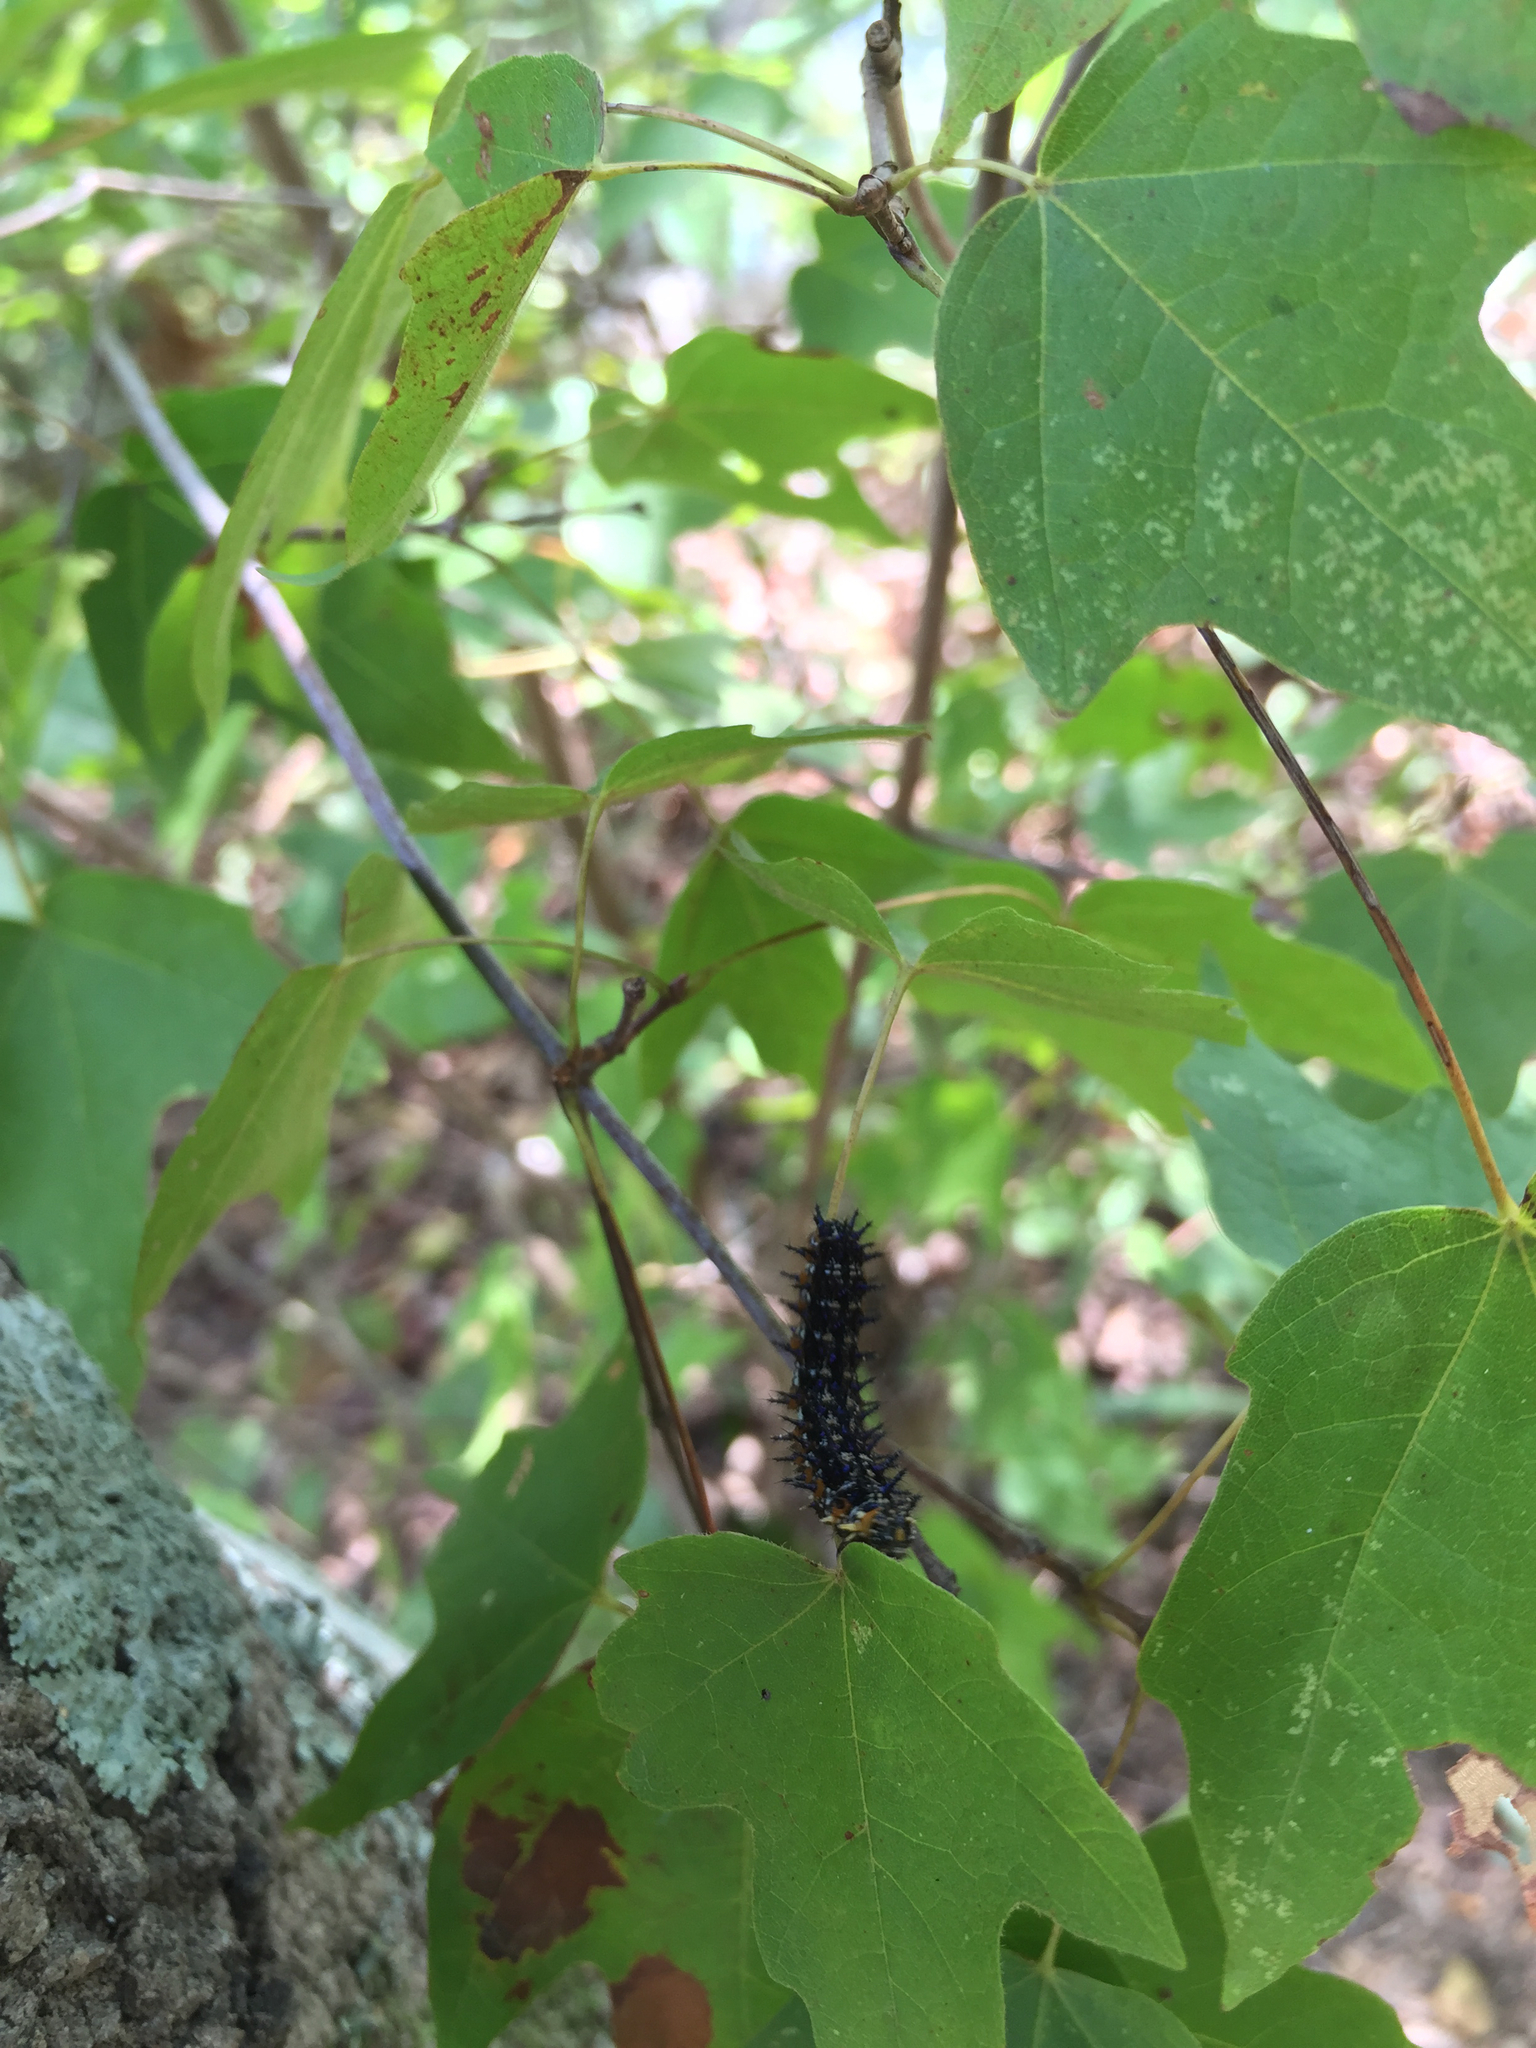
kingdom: Animalia
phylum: Arthropoda
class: Insecta
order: Lepidoptera
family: Nymphalidae
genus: Junonia
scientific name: Junonia coenia
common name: Common buckeye
